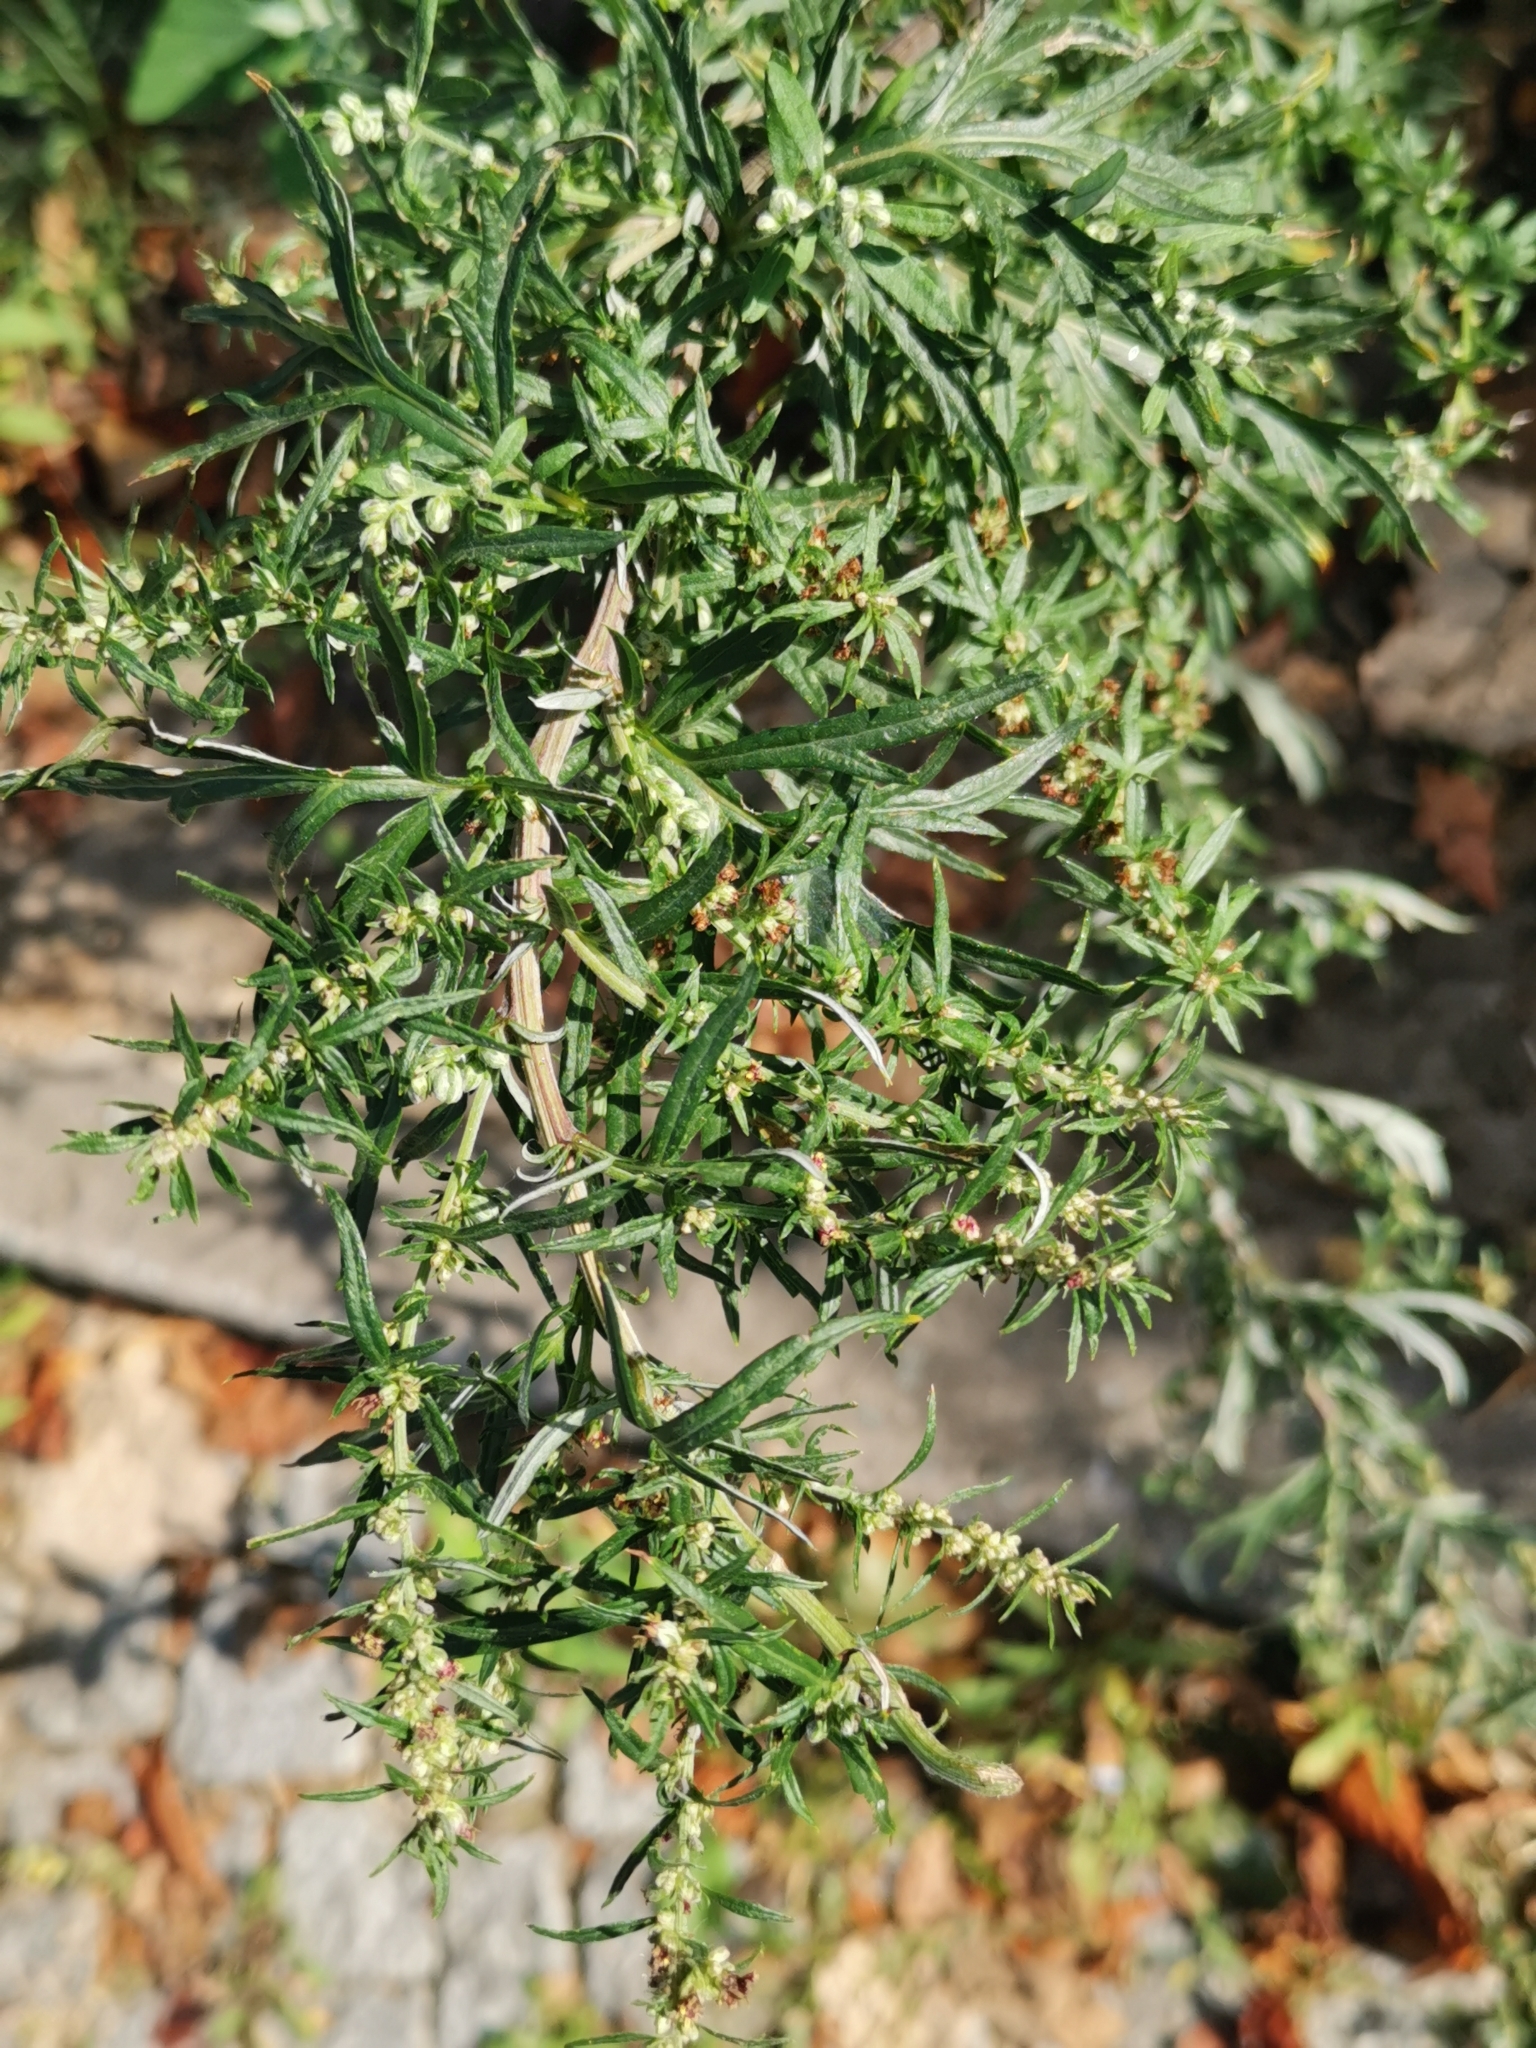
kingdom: Plantae
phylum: Tracheophyta
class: Magnoliopsida
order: Asterales
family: Asteraceae
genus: Artemisia
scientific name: Artemisia vulgaris
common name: Mugwort
